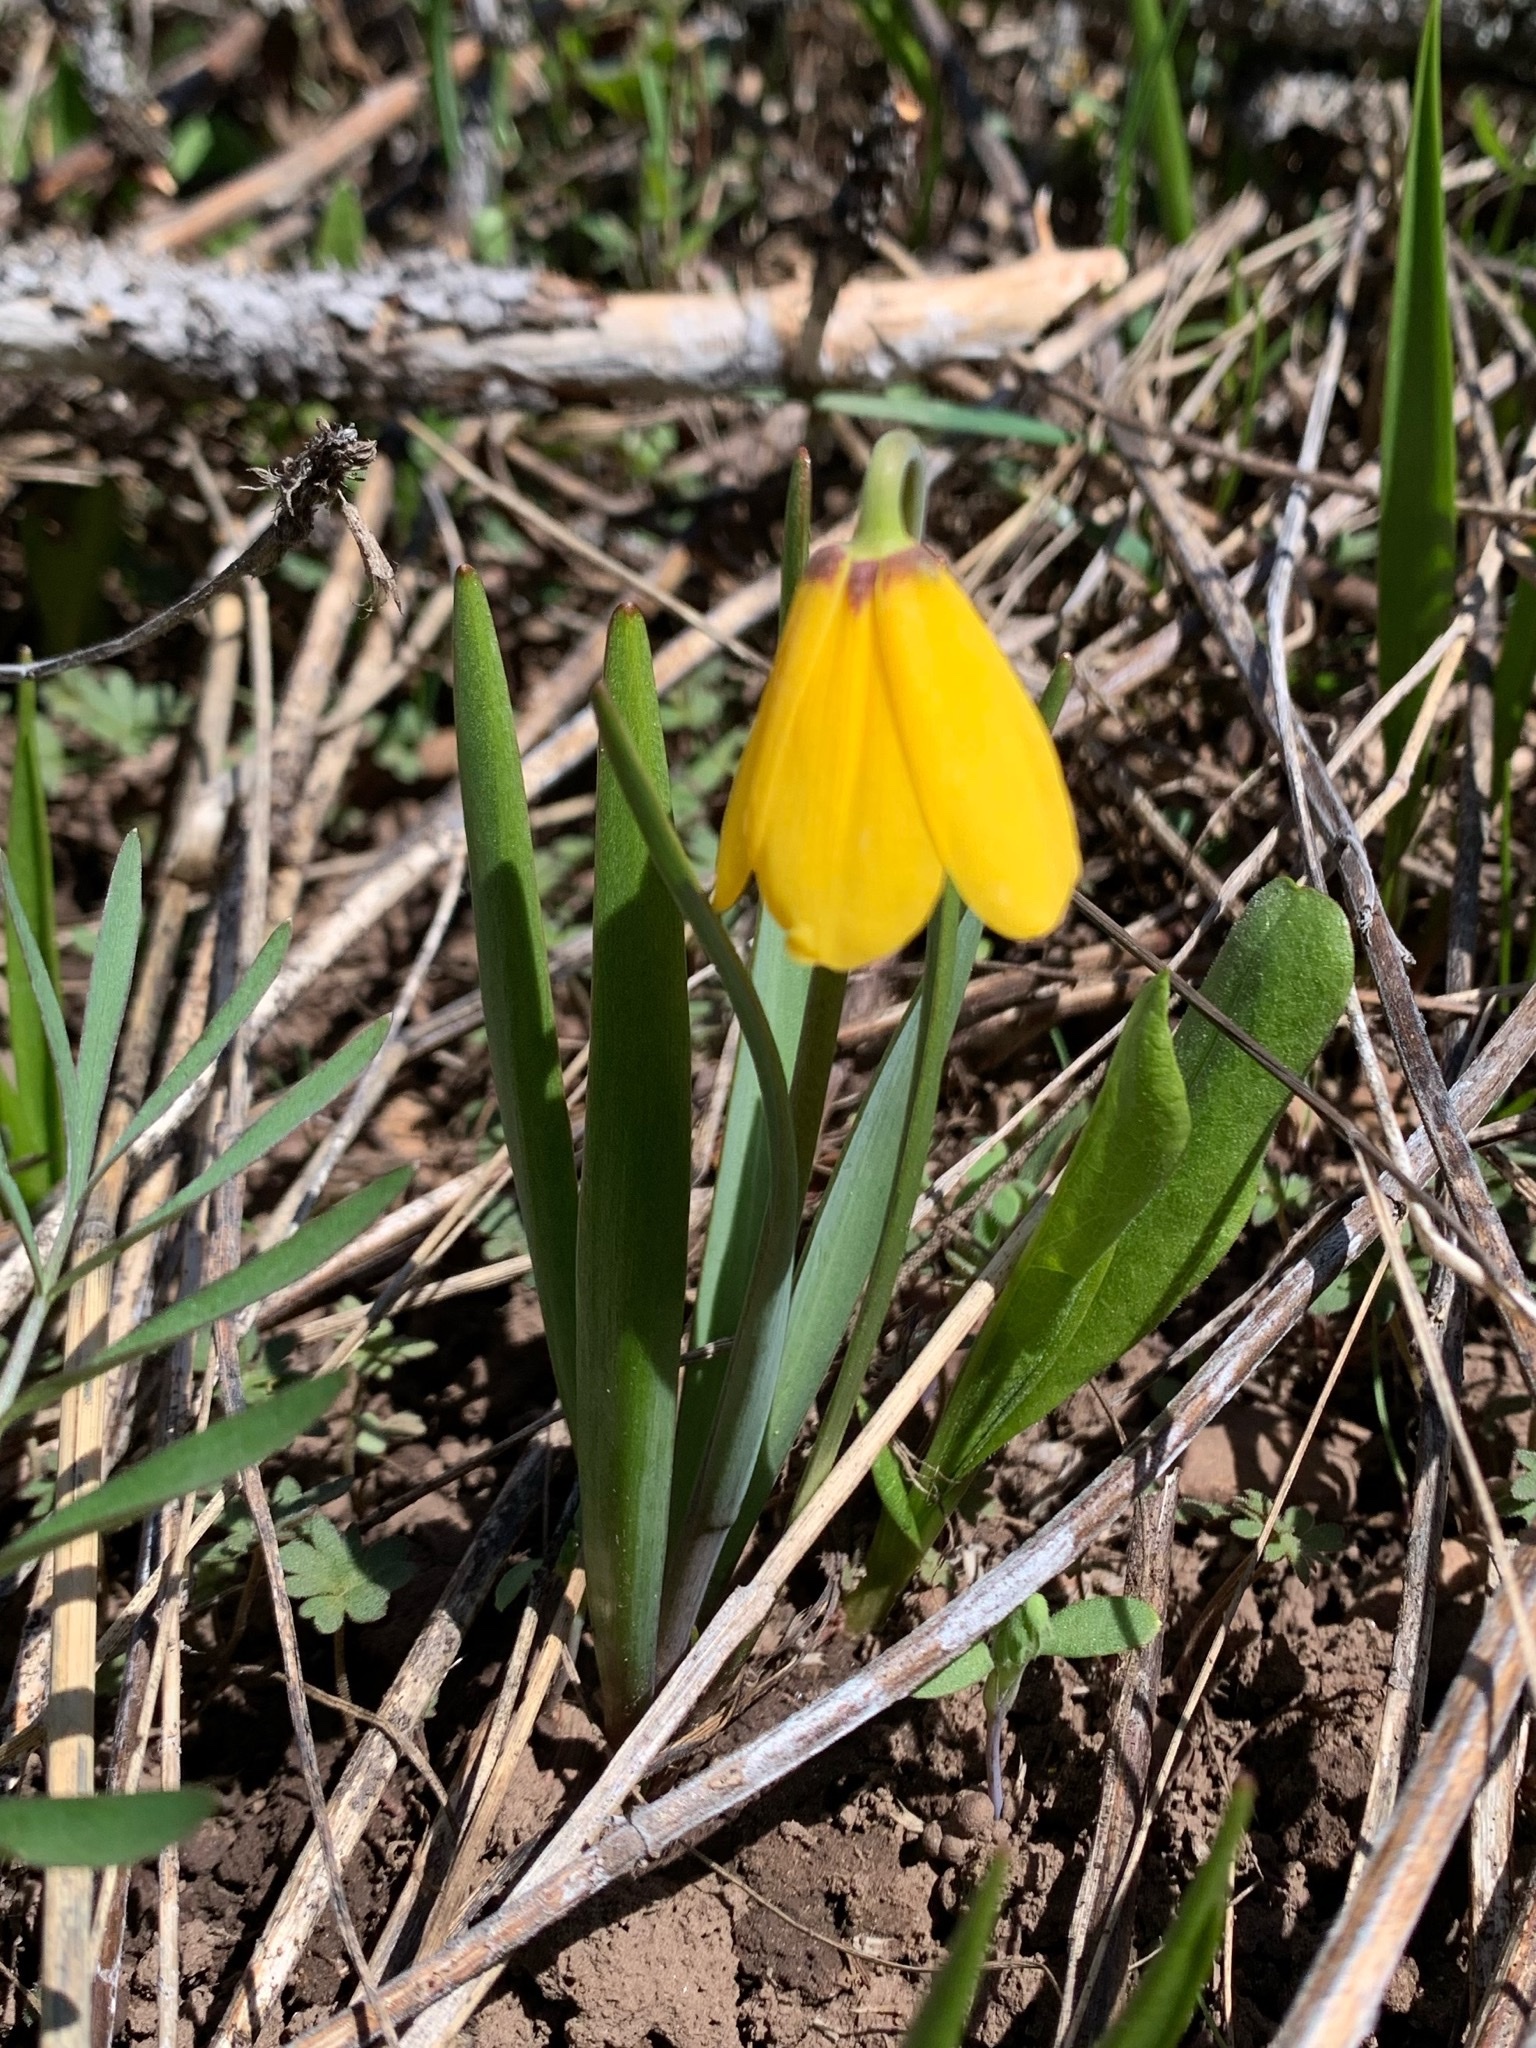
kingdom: Plantae
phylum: Tracheophyta
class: Liliopsida
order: Liliales
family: Liliaceae
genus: Fritillaria
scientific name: Fritillaria pudica
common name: Yellow fritillary
